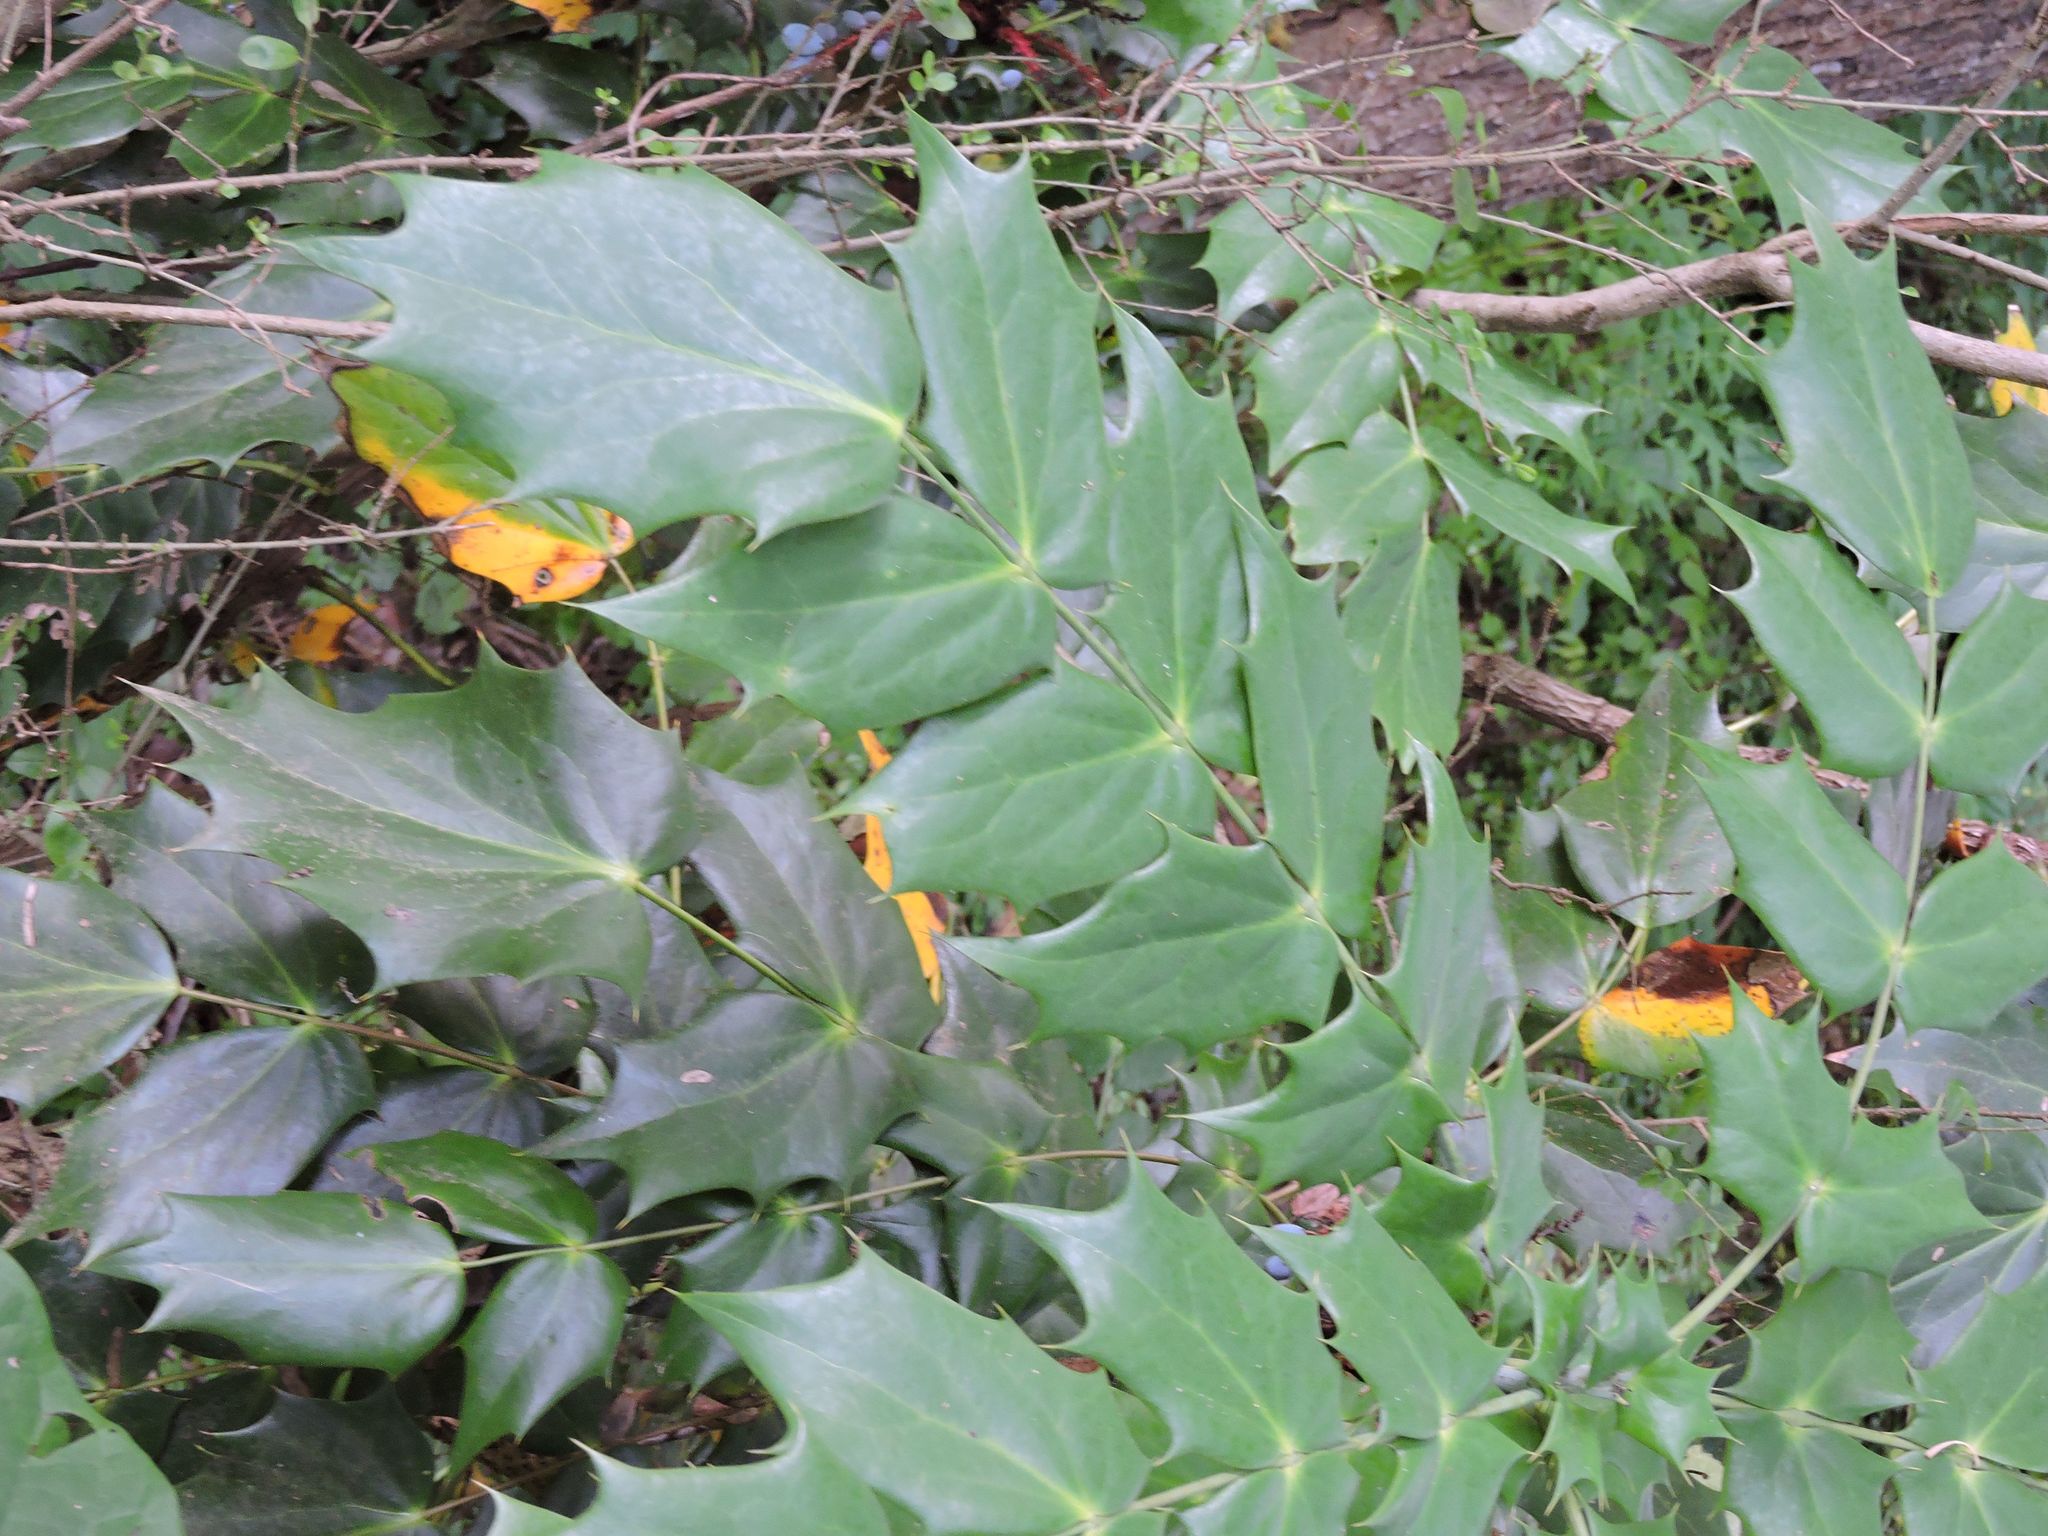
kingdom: Plantae
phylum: Tracheophyta
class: Magnoliopsida
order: Ranunculales
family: Berberidaceae
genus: Mahonia
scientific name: Mahonia bealei
